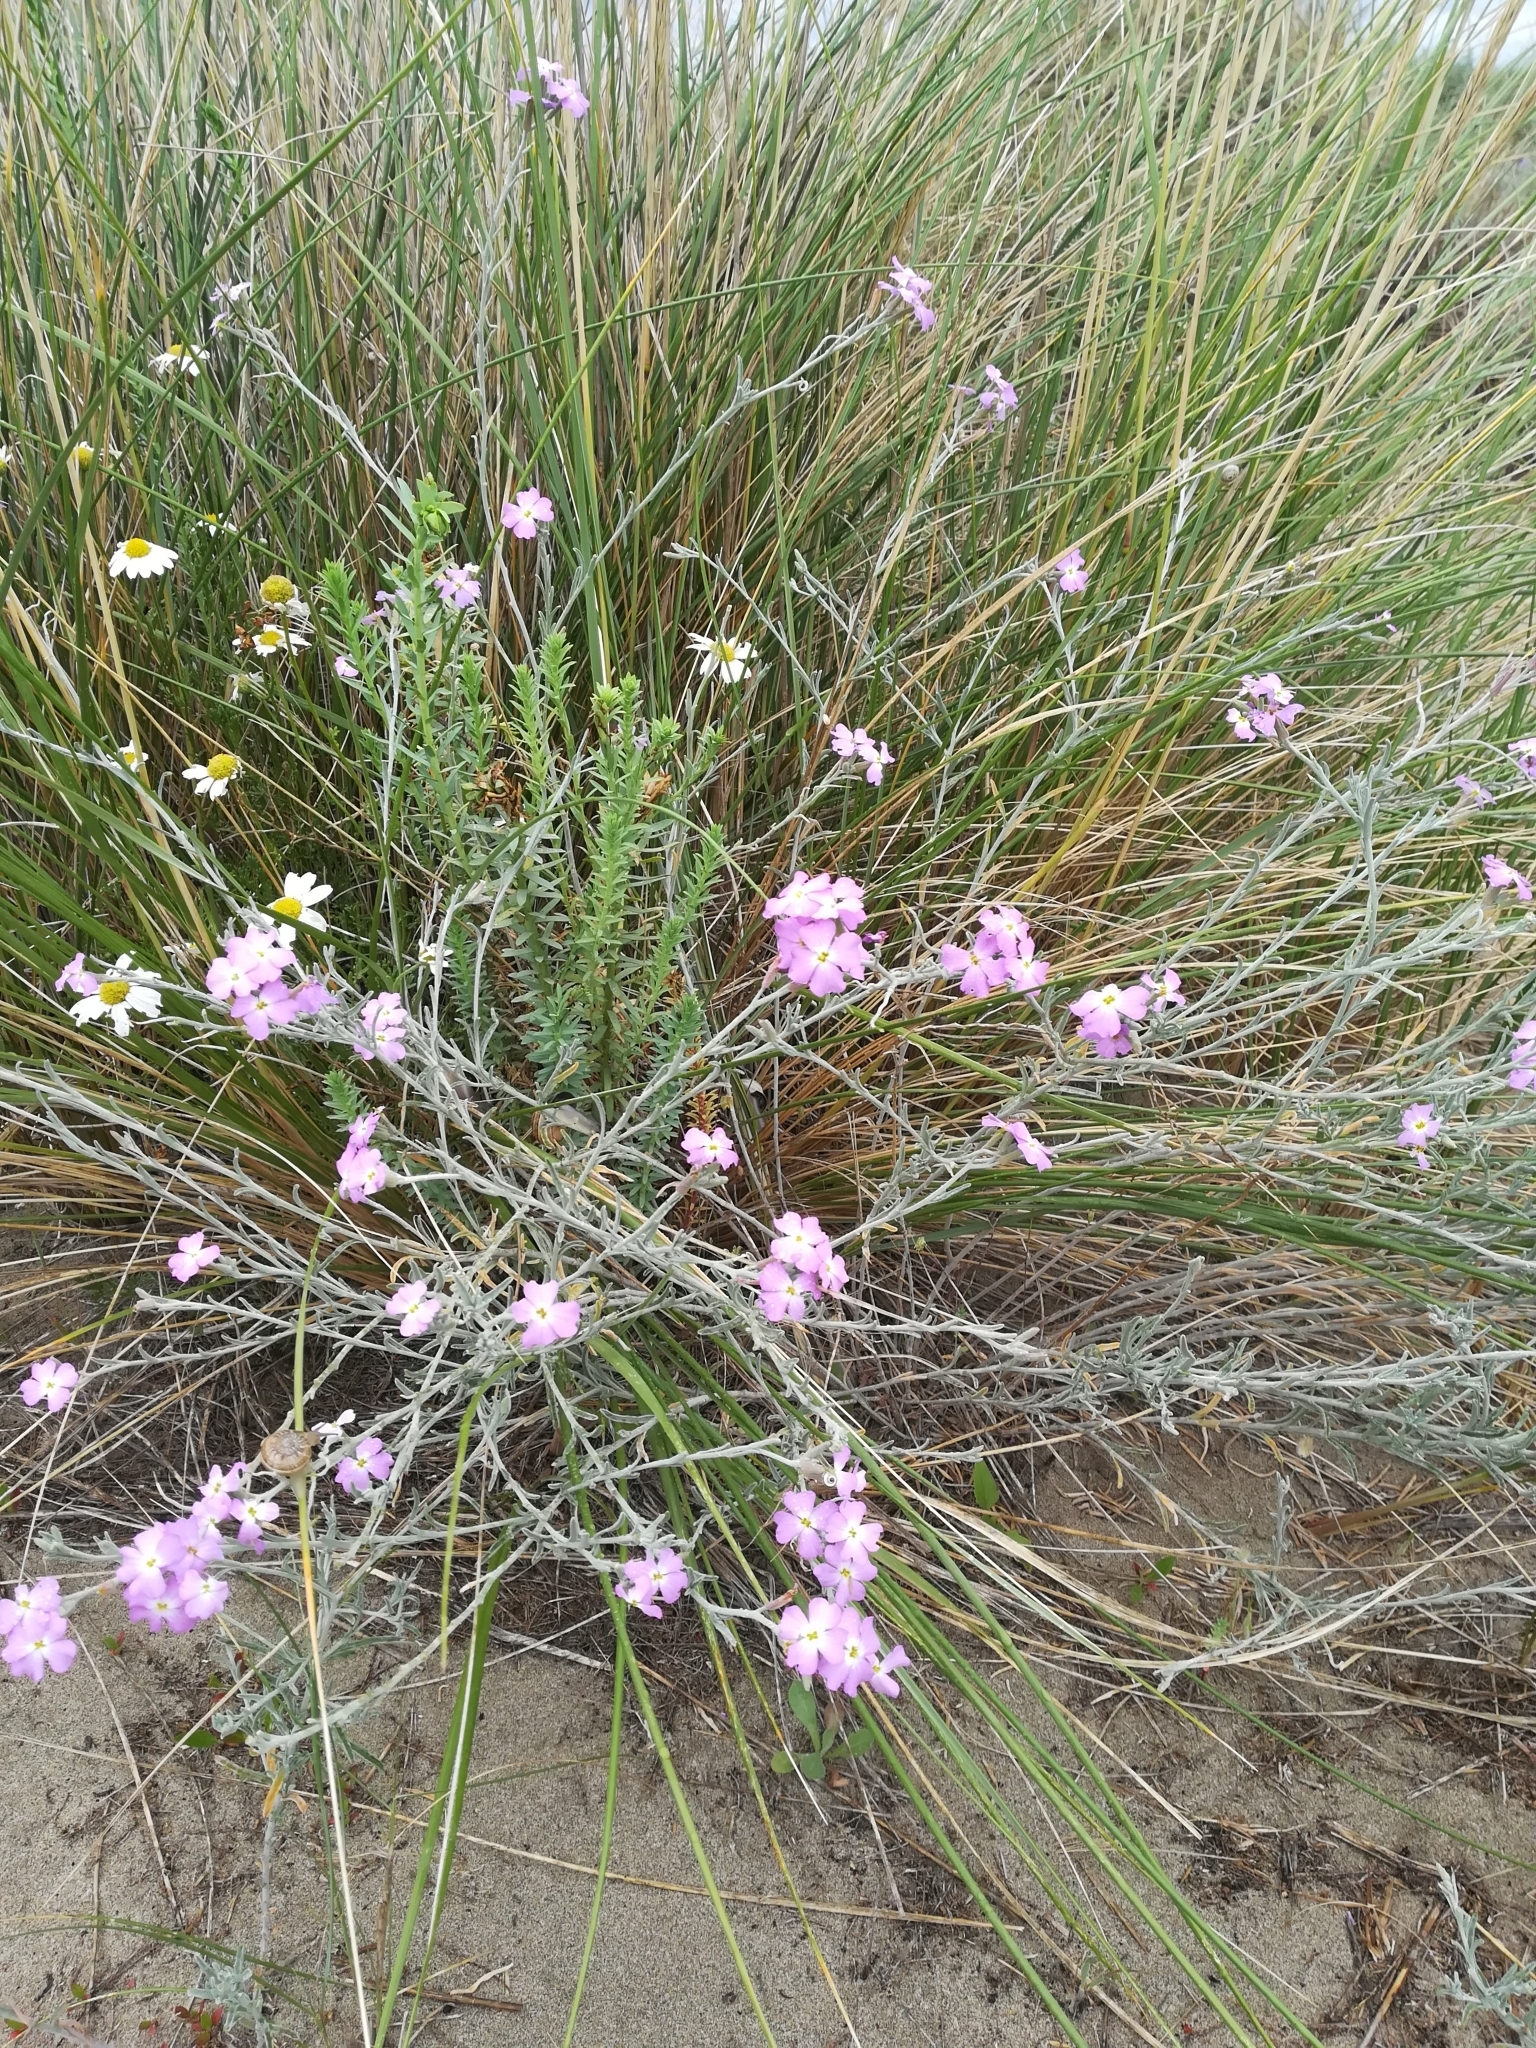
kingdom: Plantae
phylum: Tracheophyta
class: Magnoliopsida
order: Brassicales
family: Brassicaceae
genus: Marcuskochia
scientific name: Marcuskochia littorea
